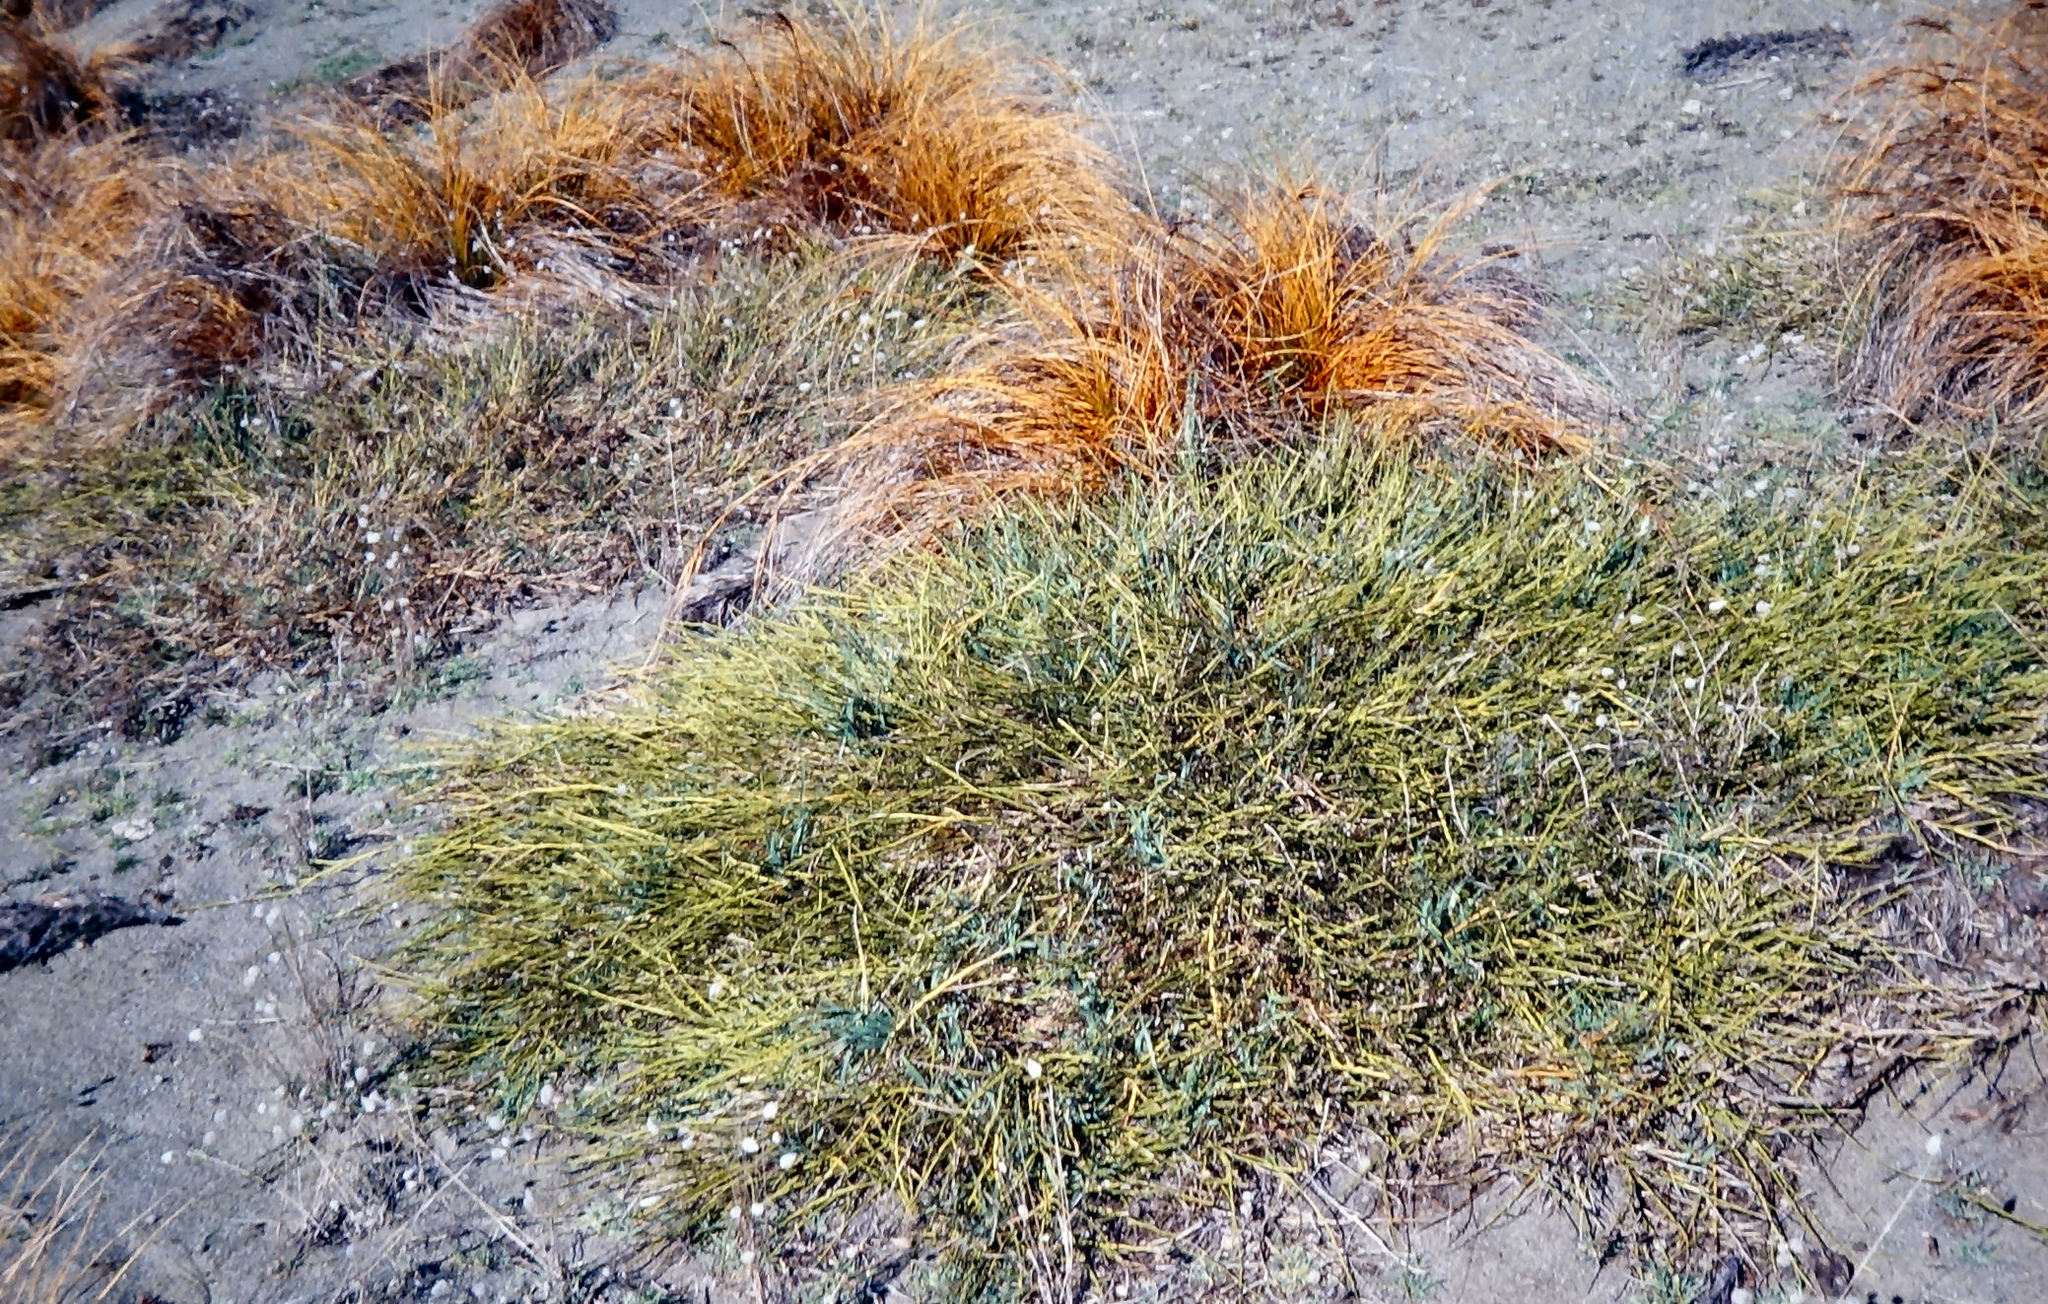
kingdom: Plantae
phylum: Tracheophyta
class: Magnoliopsida
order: Fabales
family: Fabaceae
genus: Carmichaelia
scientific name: Carmichaelia appressa
